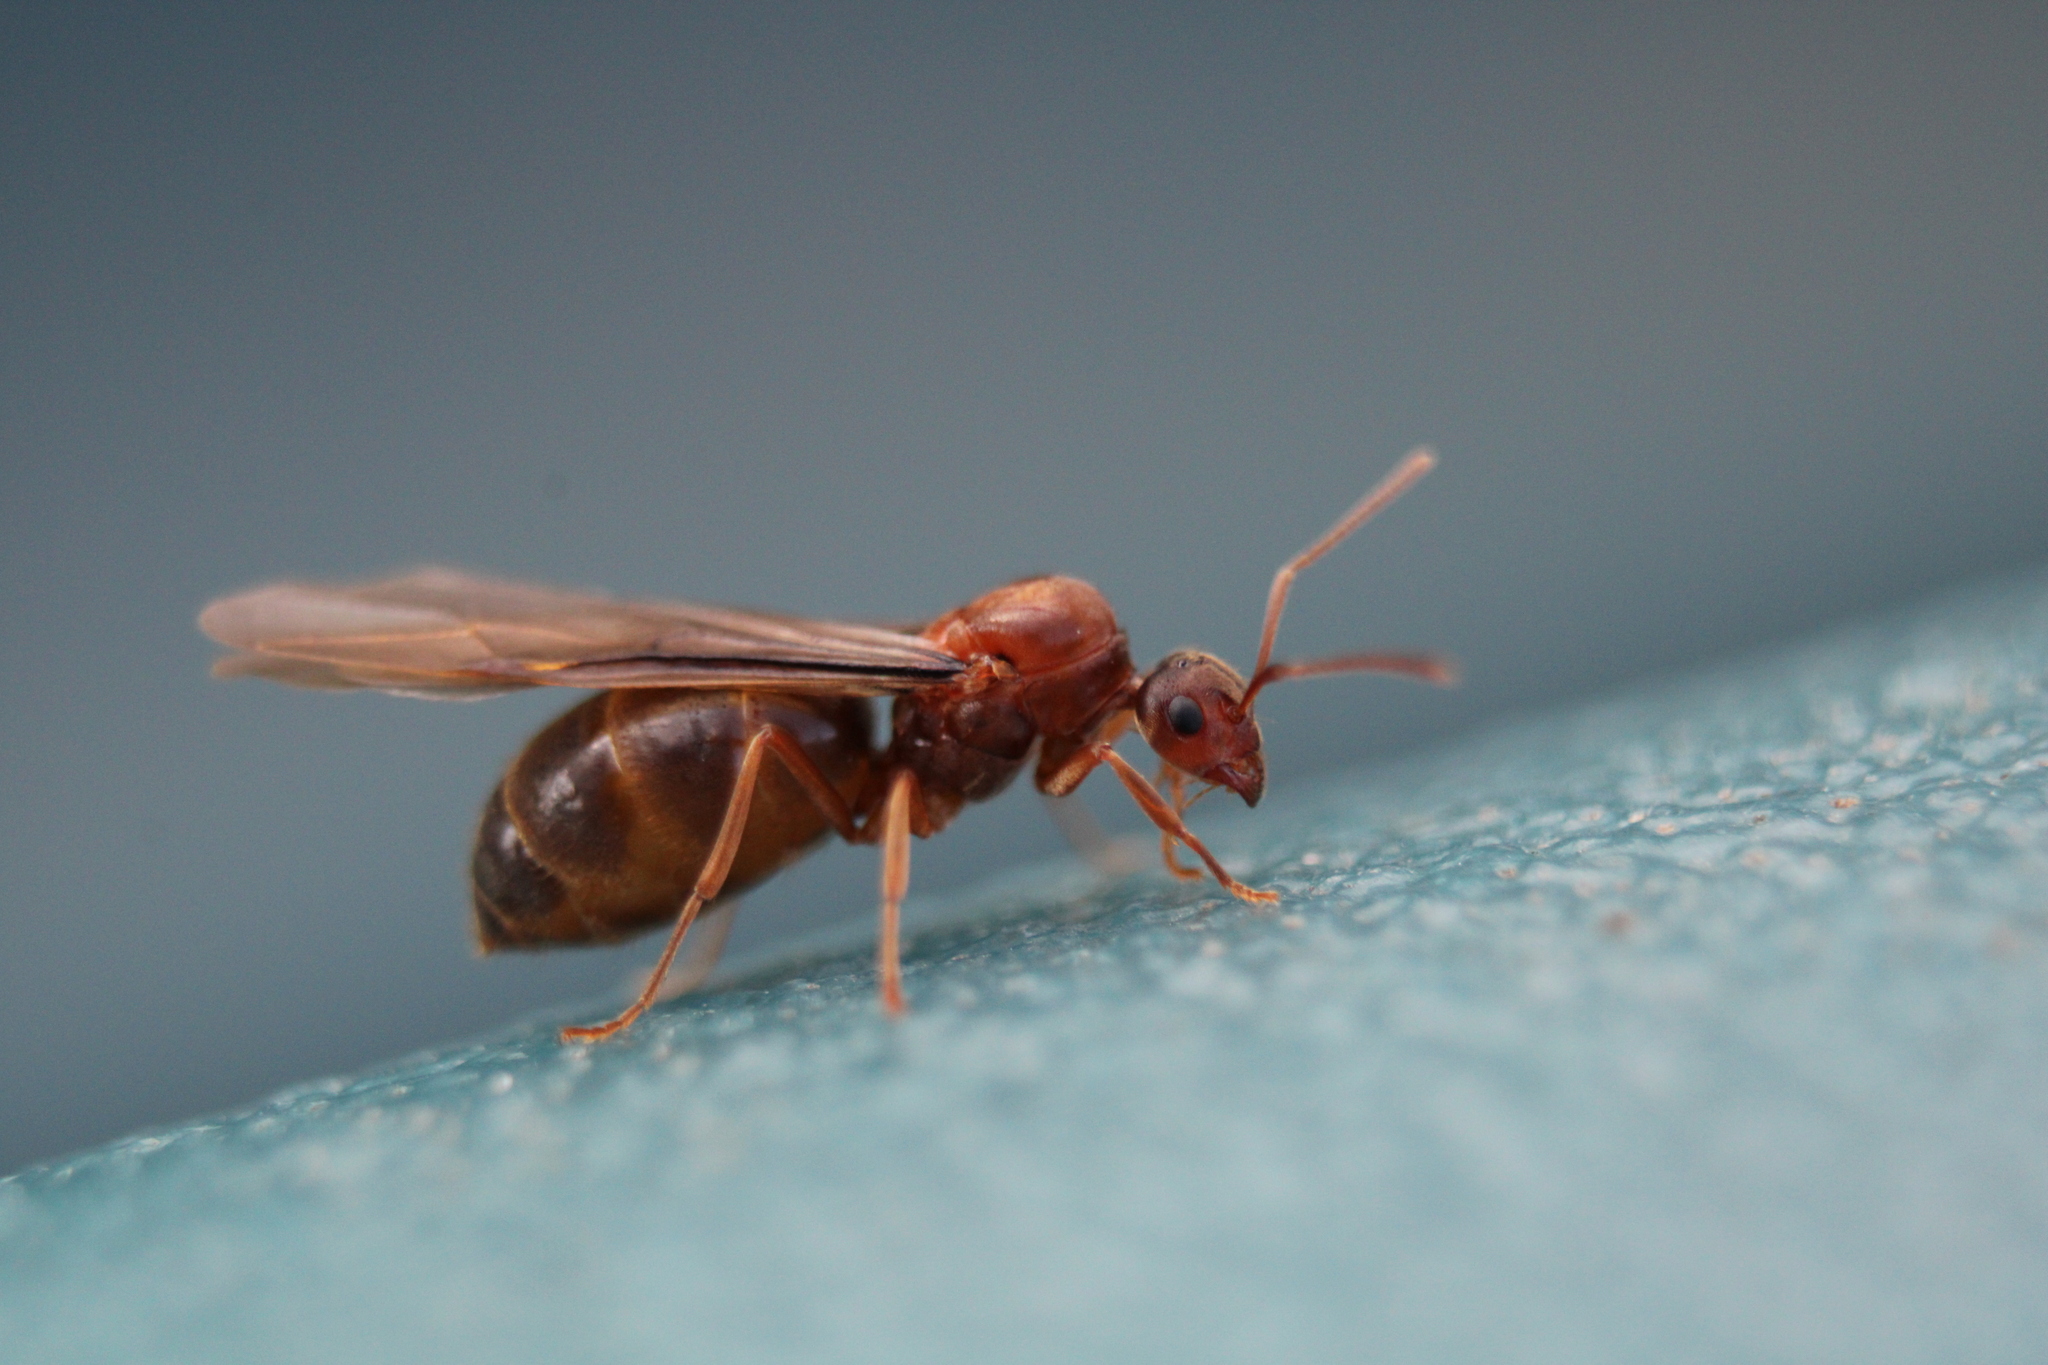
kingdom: Animalia
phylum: Arthropoda
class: Insecta
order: Hymenoptera
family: Formicidae
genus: Prenolepis
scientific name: Prenolepis imparis
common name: Small honey ant
